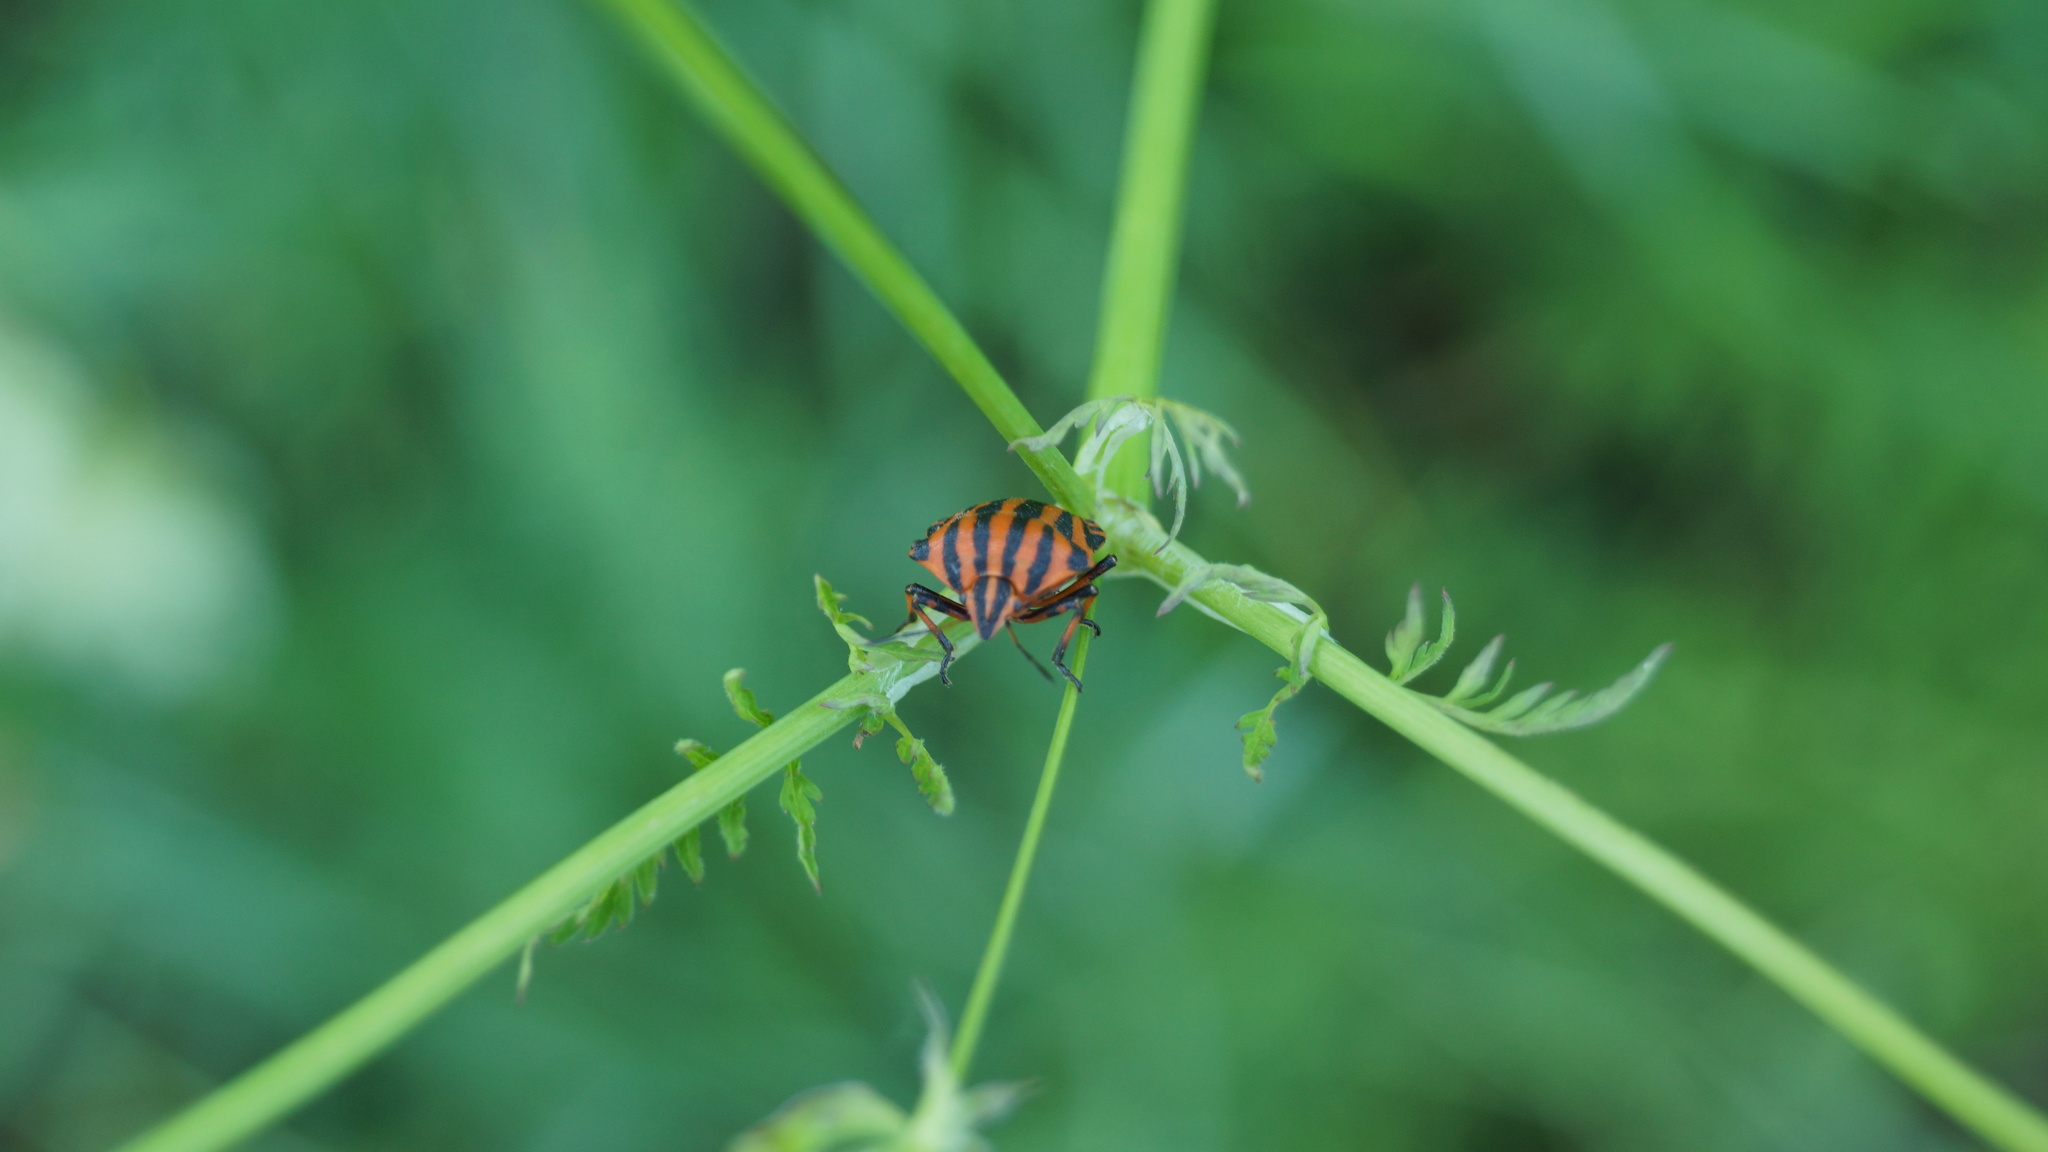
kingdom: Animalia
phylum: Arthropoda
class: Insecta
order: Hemiptera
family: Pentatomidae
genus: Graphosoma
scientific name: Graphosoma italicum
